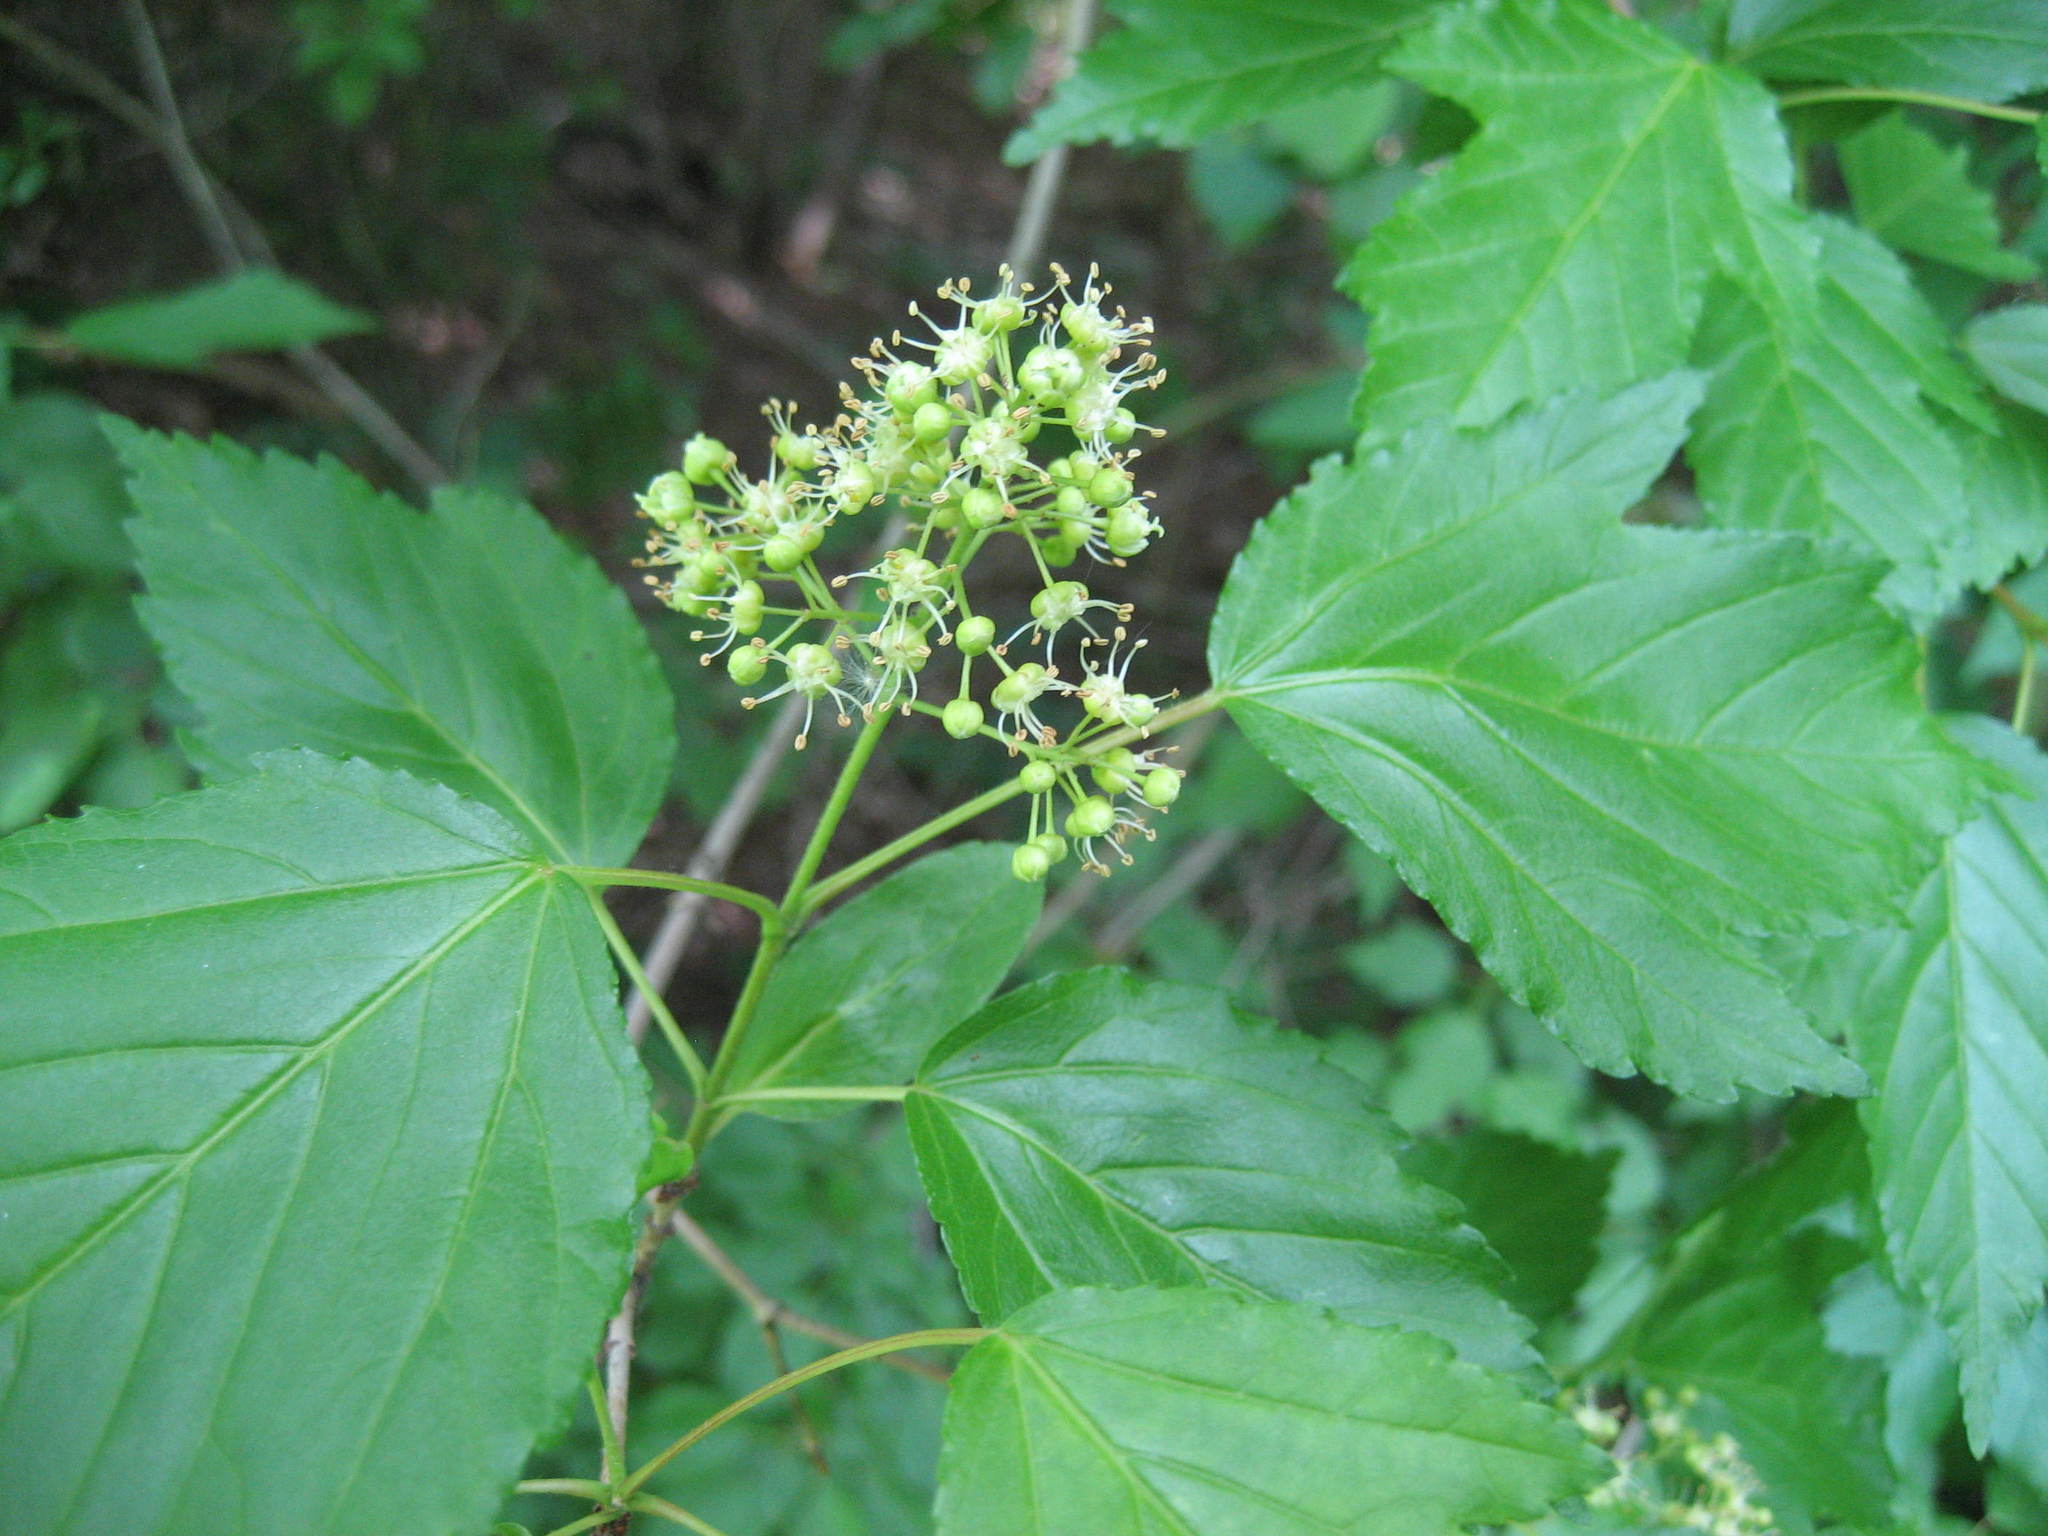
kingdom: Plantae
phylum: Tracheophyta
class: Magnoliopsida
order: Sapindales
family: Sapindaceae
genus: Acer
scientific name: Acer tataricum
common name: Tartar maple
